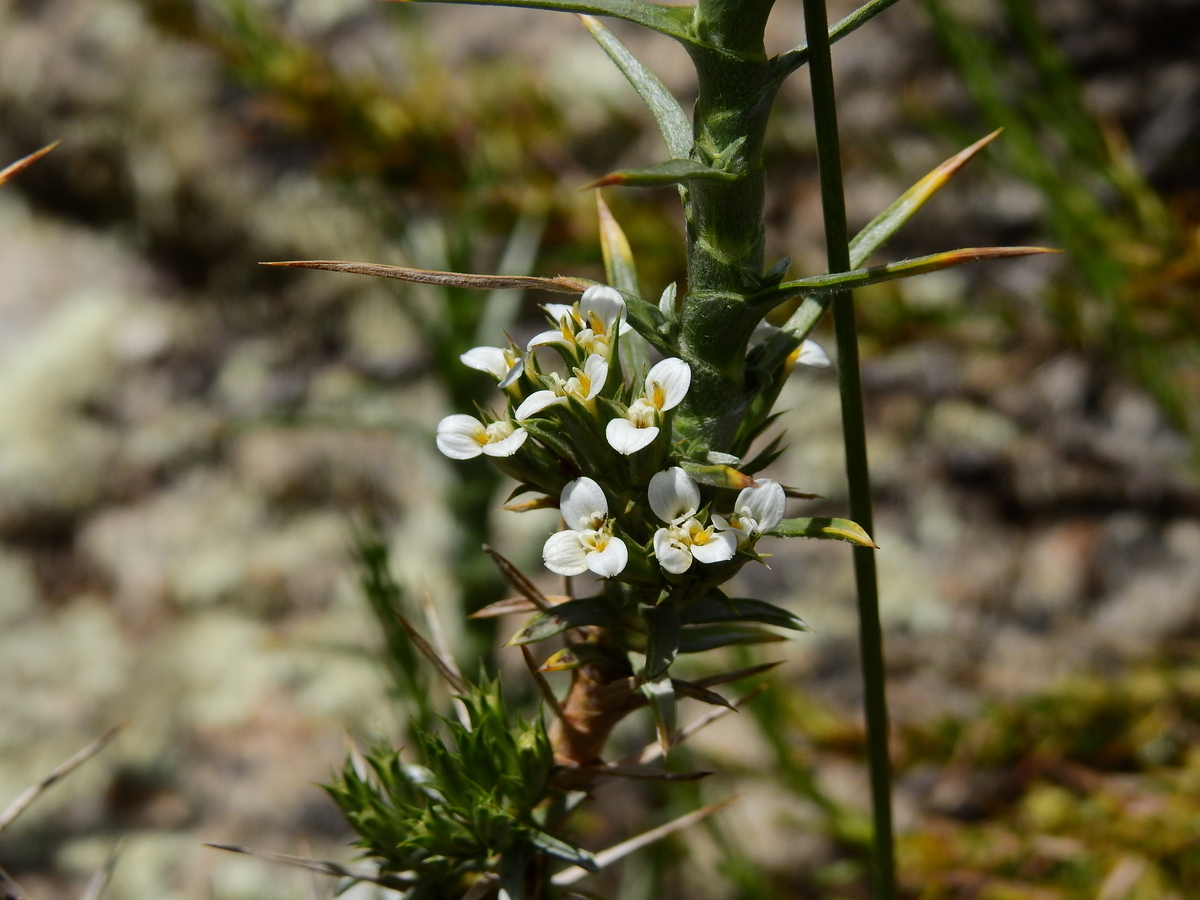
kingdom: Plantae
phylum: Tracheophyta
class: Magnoliopsida
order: Asterales
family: Asteraceae
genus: Nassauvia
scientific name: Nassauvia axillaris
